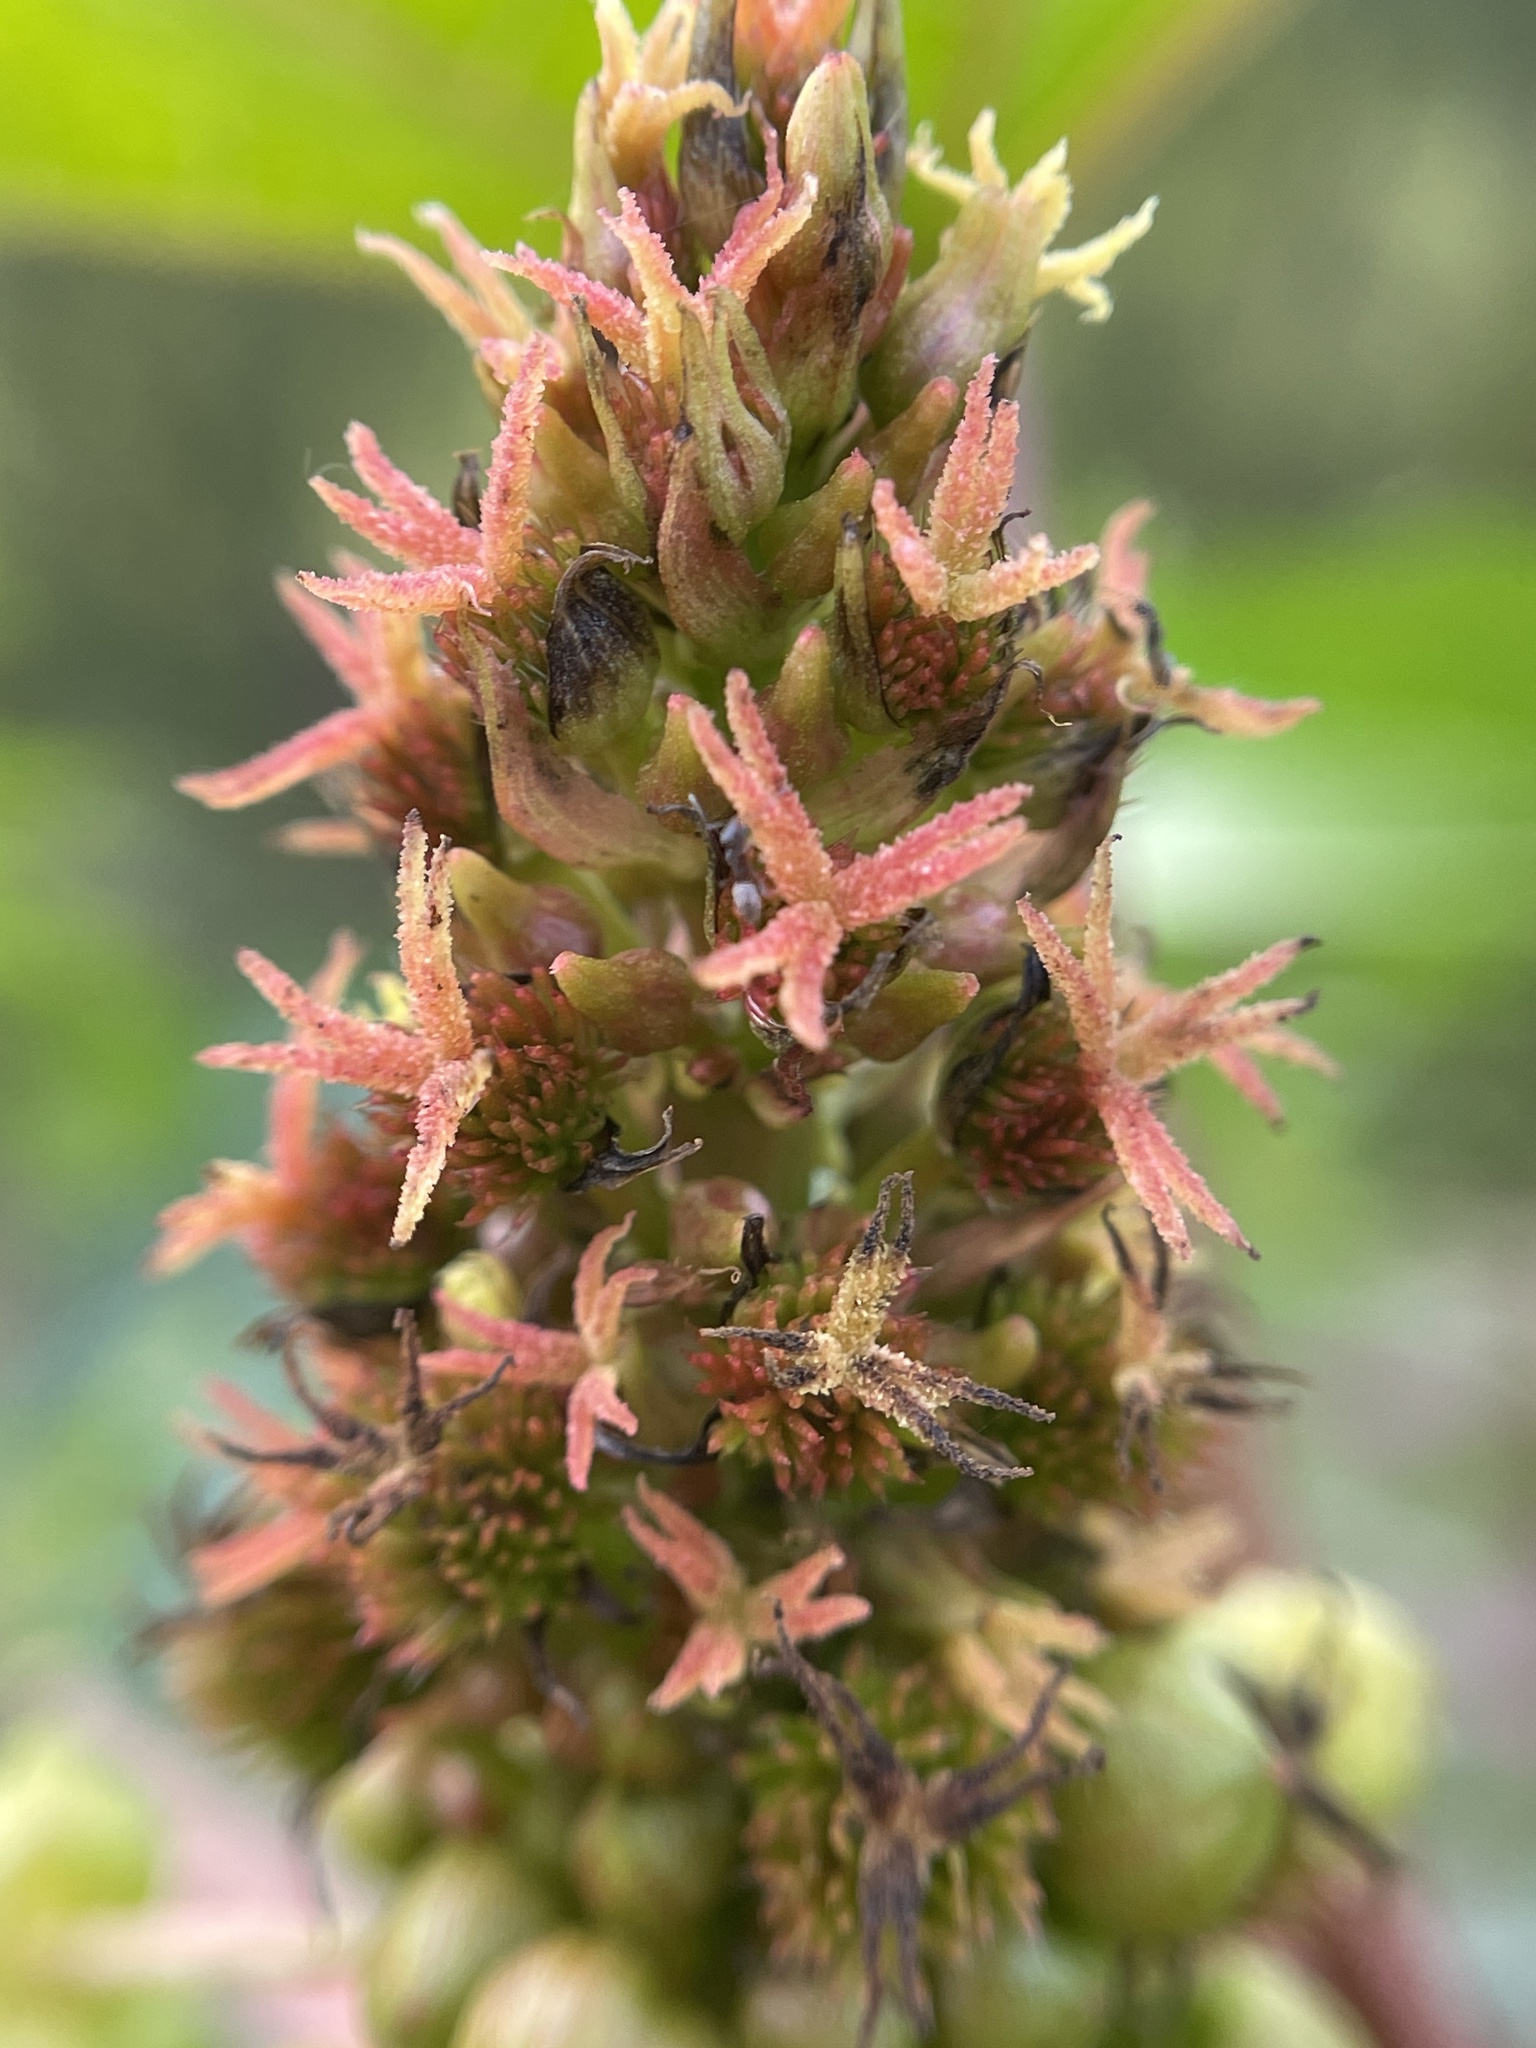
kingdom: Plantae
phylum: Tracheophyta
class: Magnoliopsida
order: Malpighiales
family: Euphorbiaceae
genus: Ricinus
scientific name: Ricinus communis
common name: Castor-oil-plant
